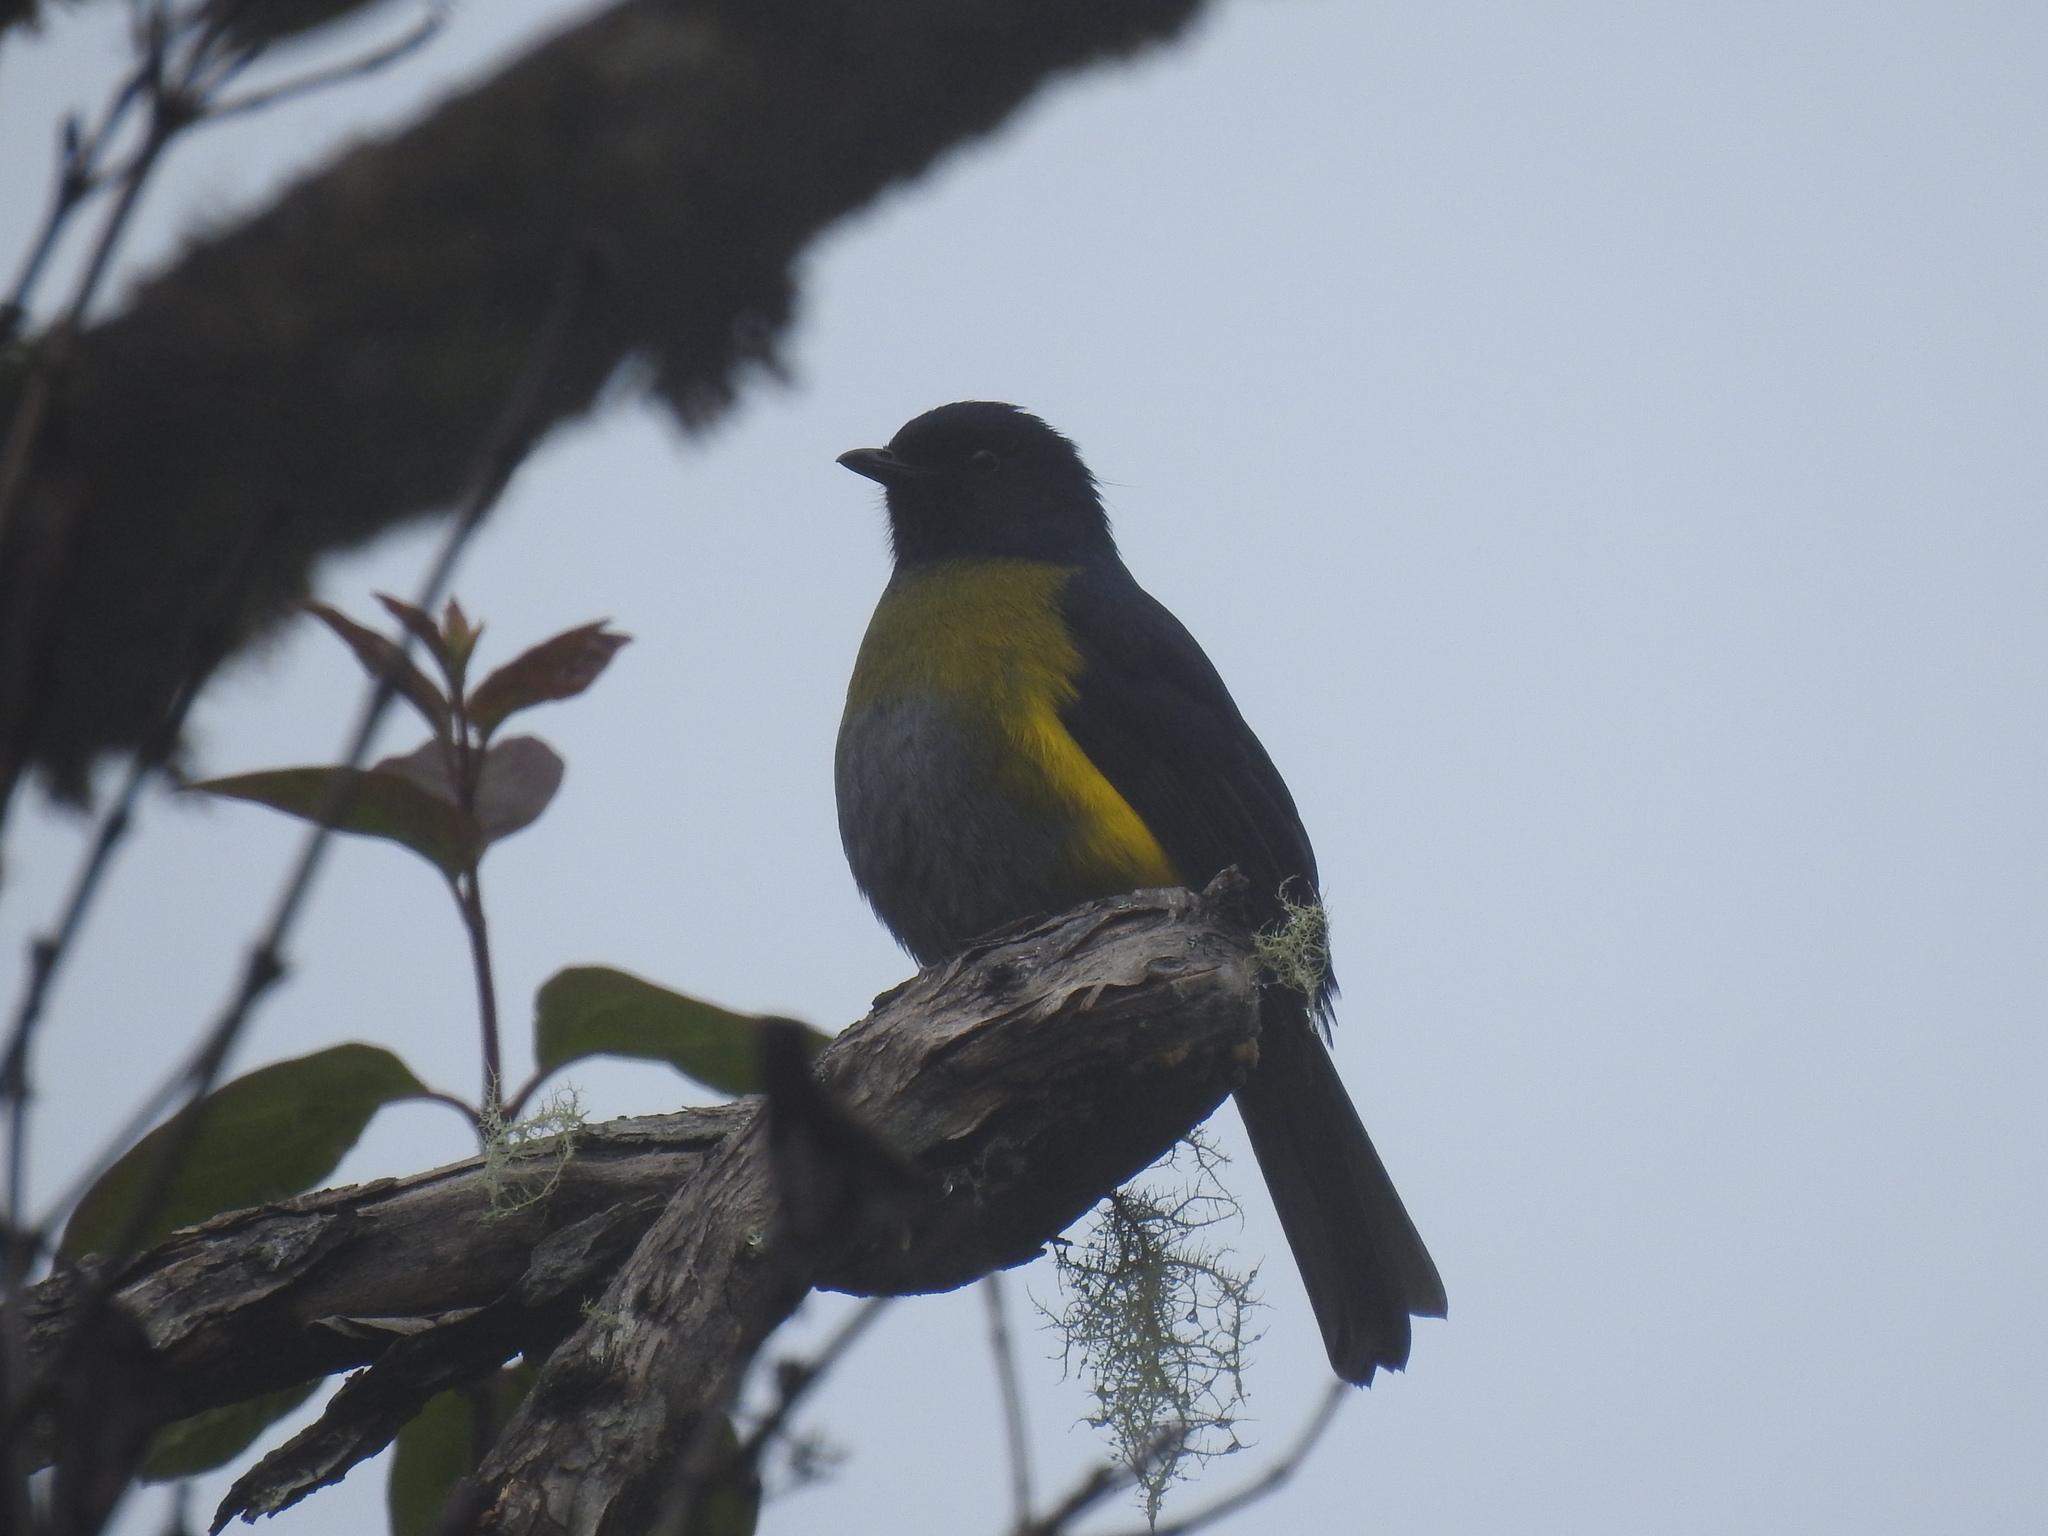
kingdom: Animalia
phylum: Chordata
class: Aves
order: Passeriformes
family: Ptilogonatidae
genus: Phainoptila
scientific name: Phainoptila melanoxantha
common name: Black-and-yellow phainoptila
